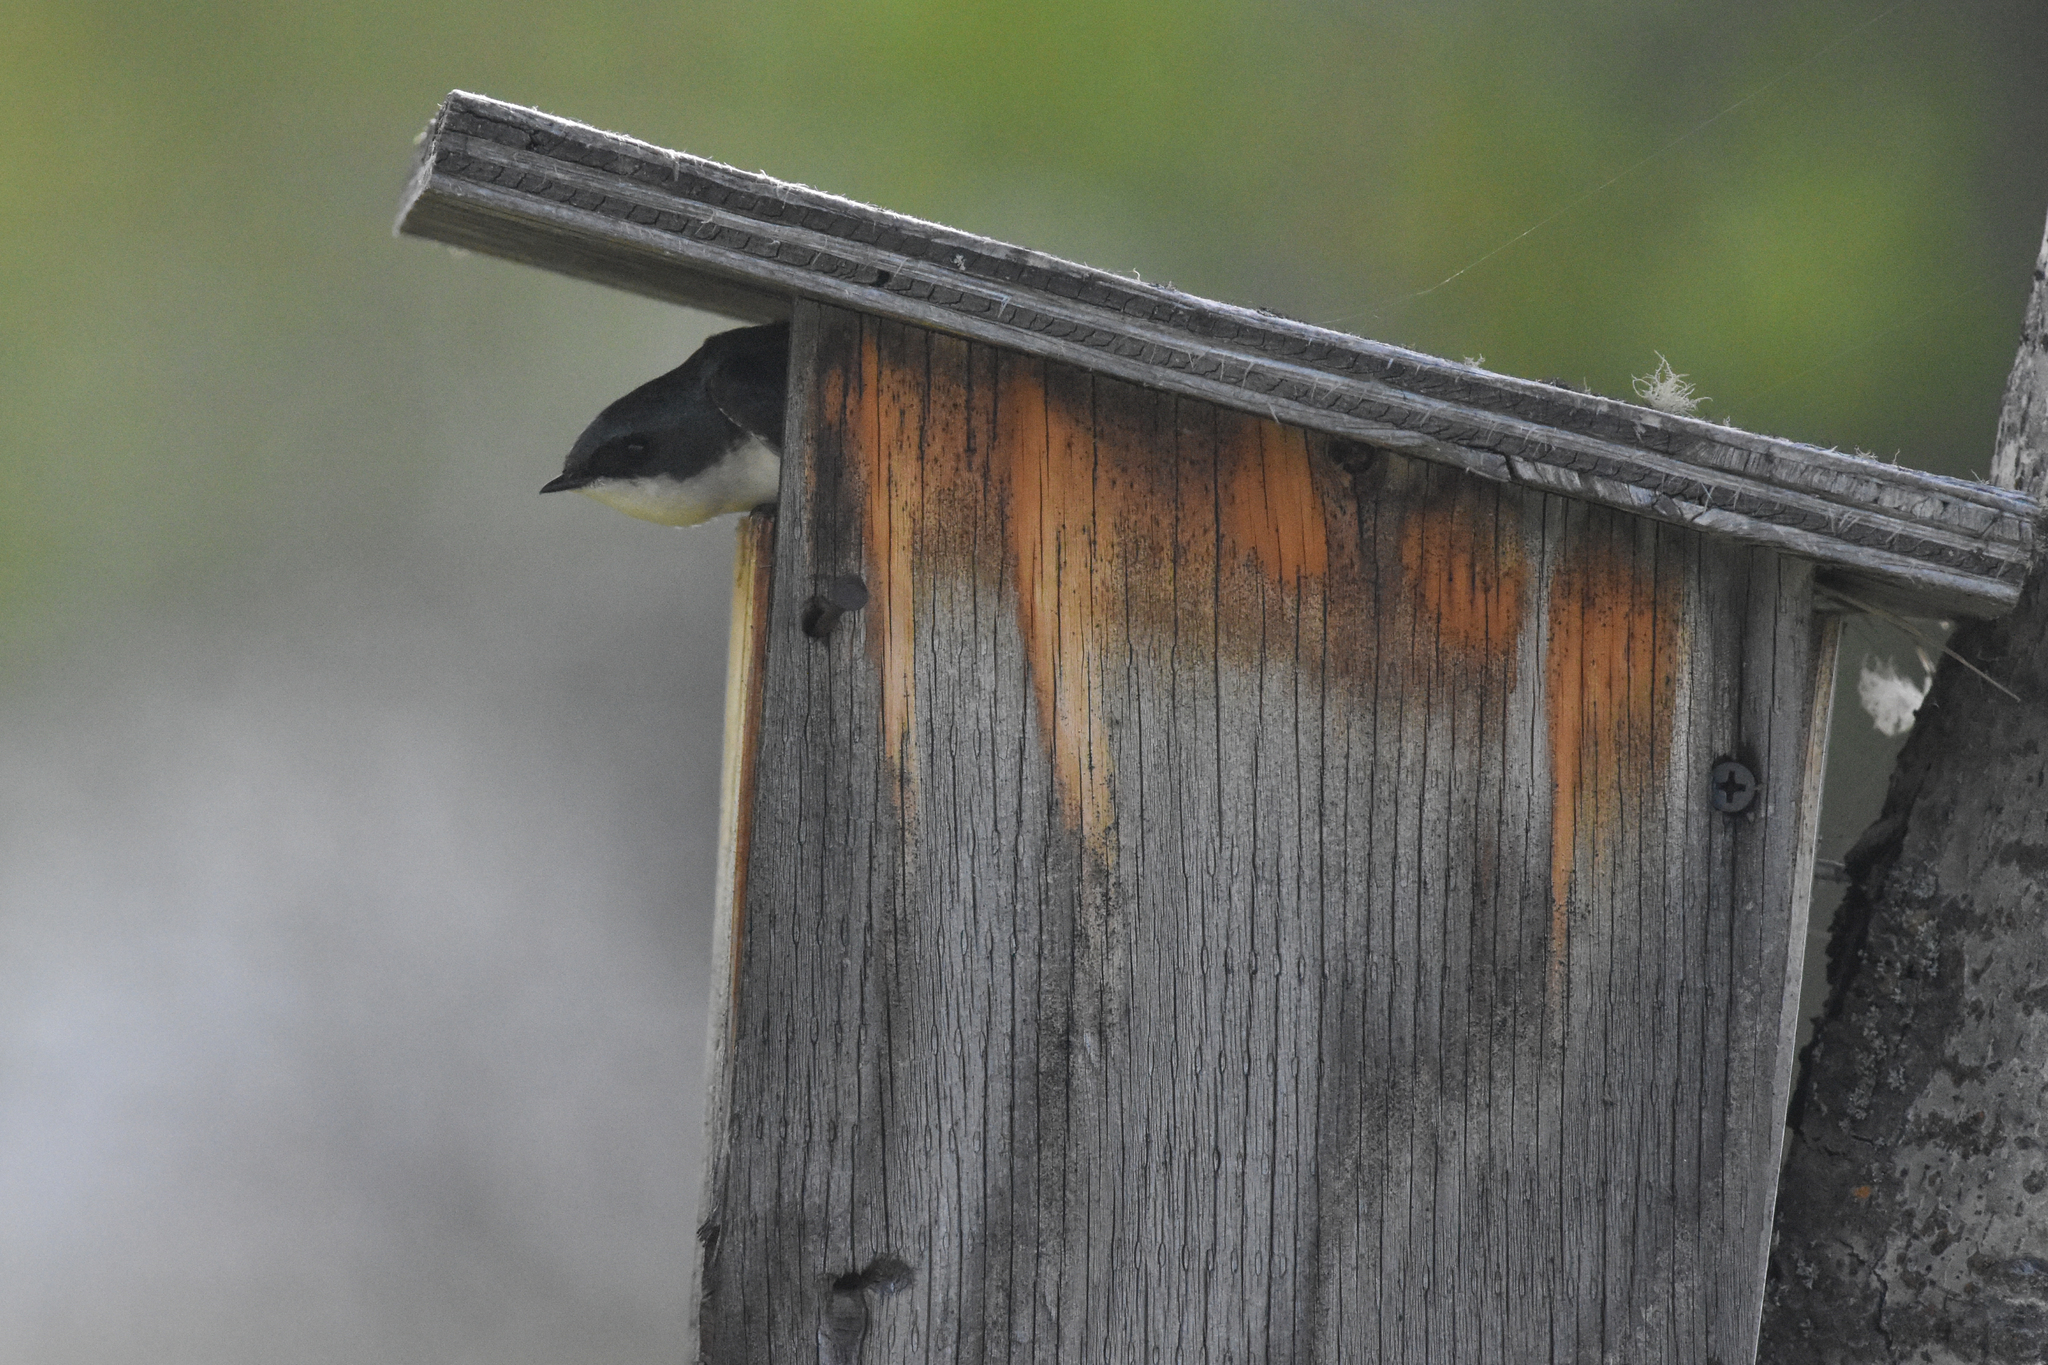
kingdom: Animalia
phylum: Chordata
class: Aves
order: Passeriformes
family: Hirundinidae
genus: Tachycineta
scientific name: Tachycineta bicolor
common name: Tree swallow
